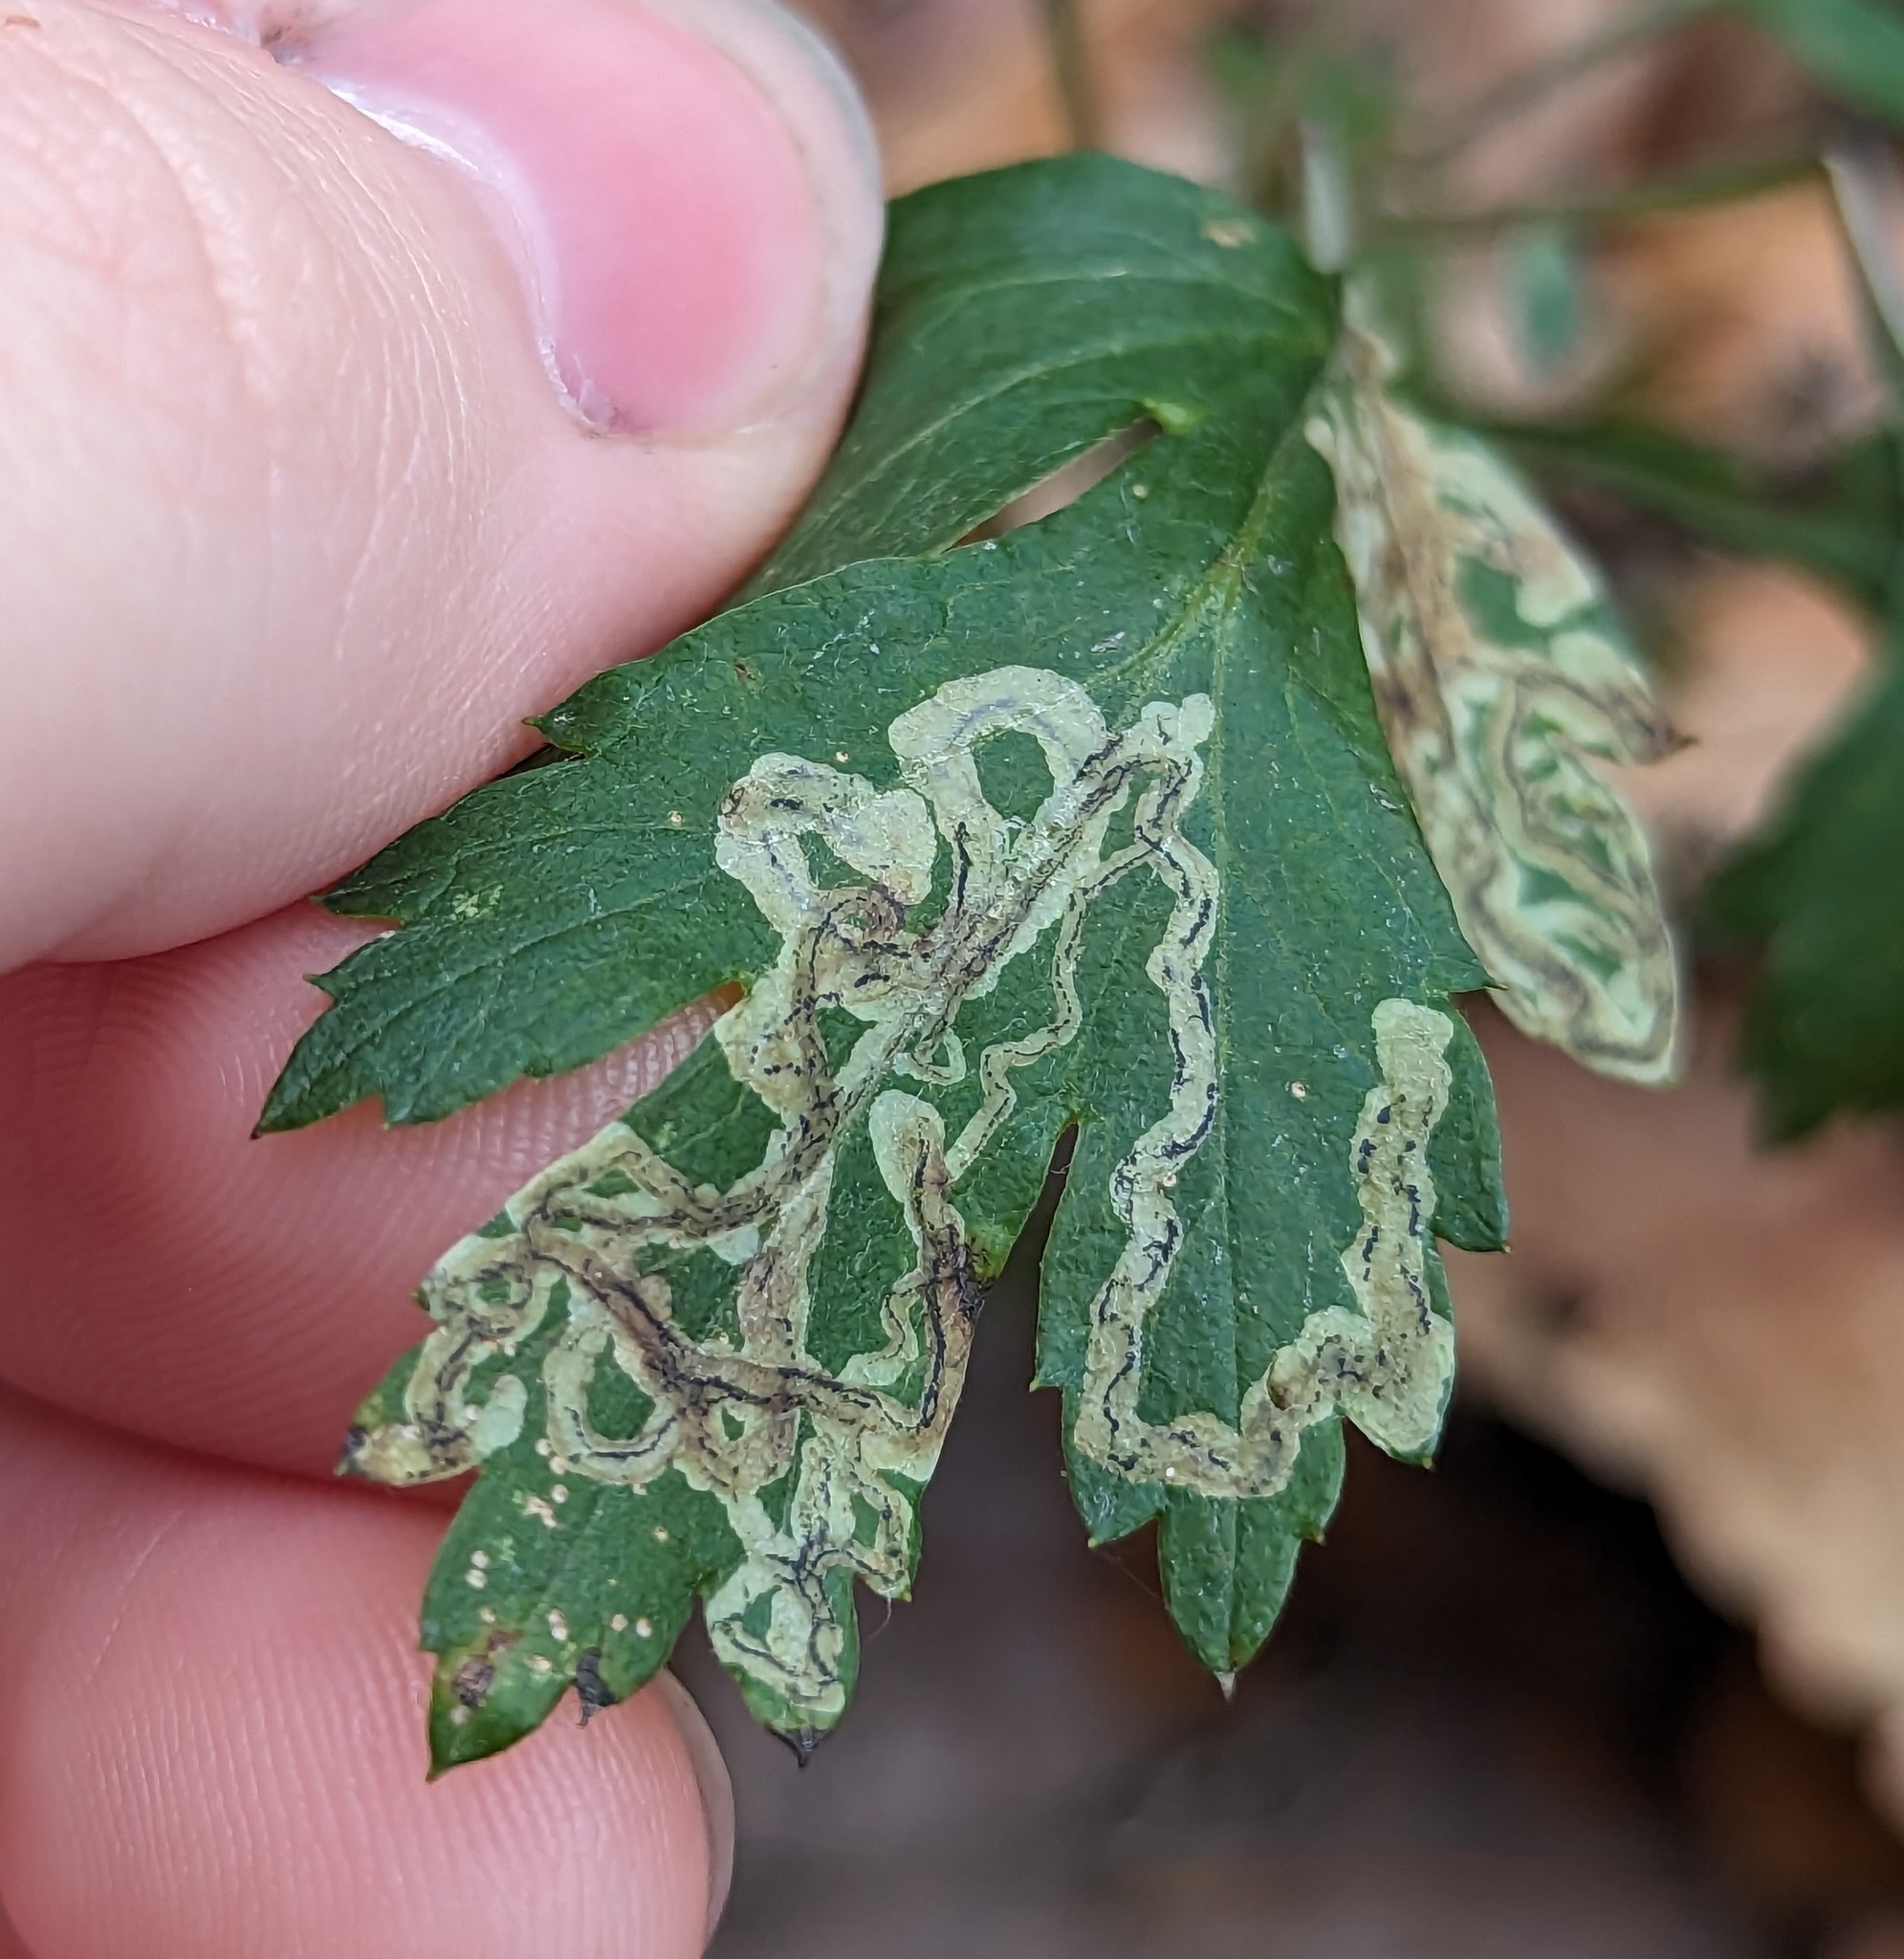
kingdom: Animalia
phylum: Arthropoda
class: Insecta
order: Diptera
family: Agromyzidae
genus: Liriomyza
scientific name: Liriomyza ptarmicae
